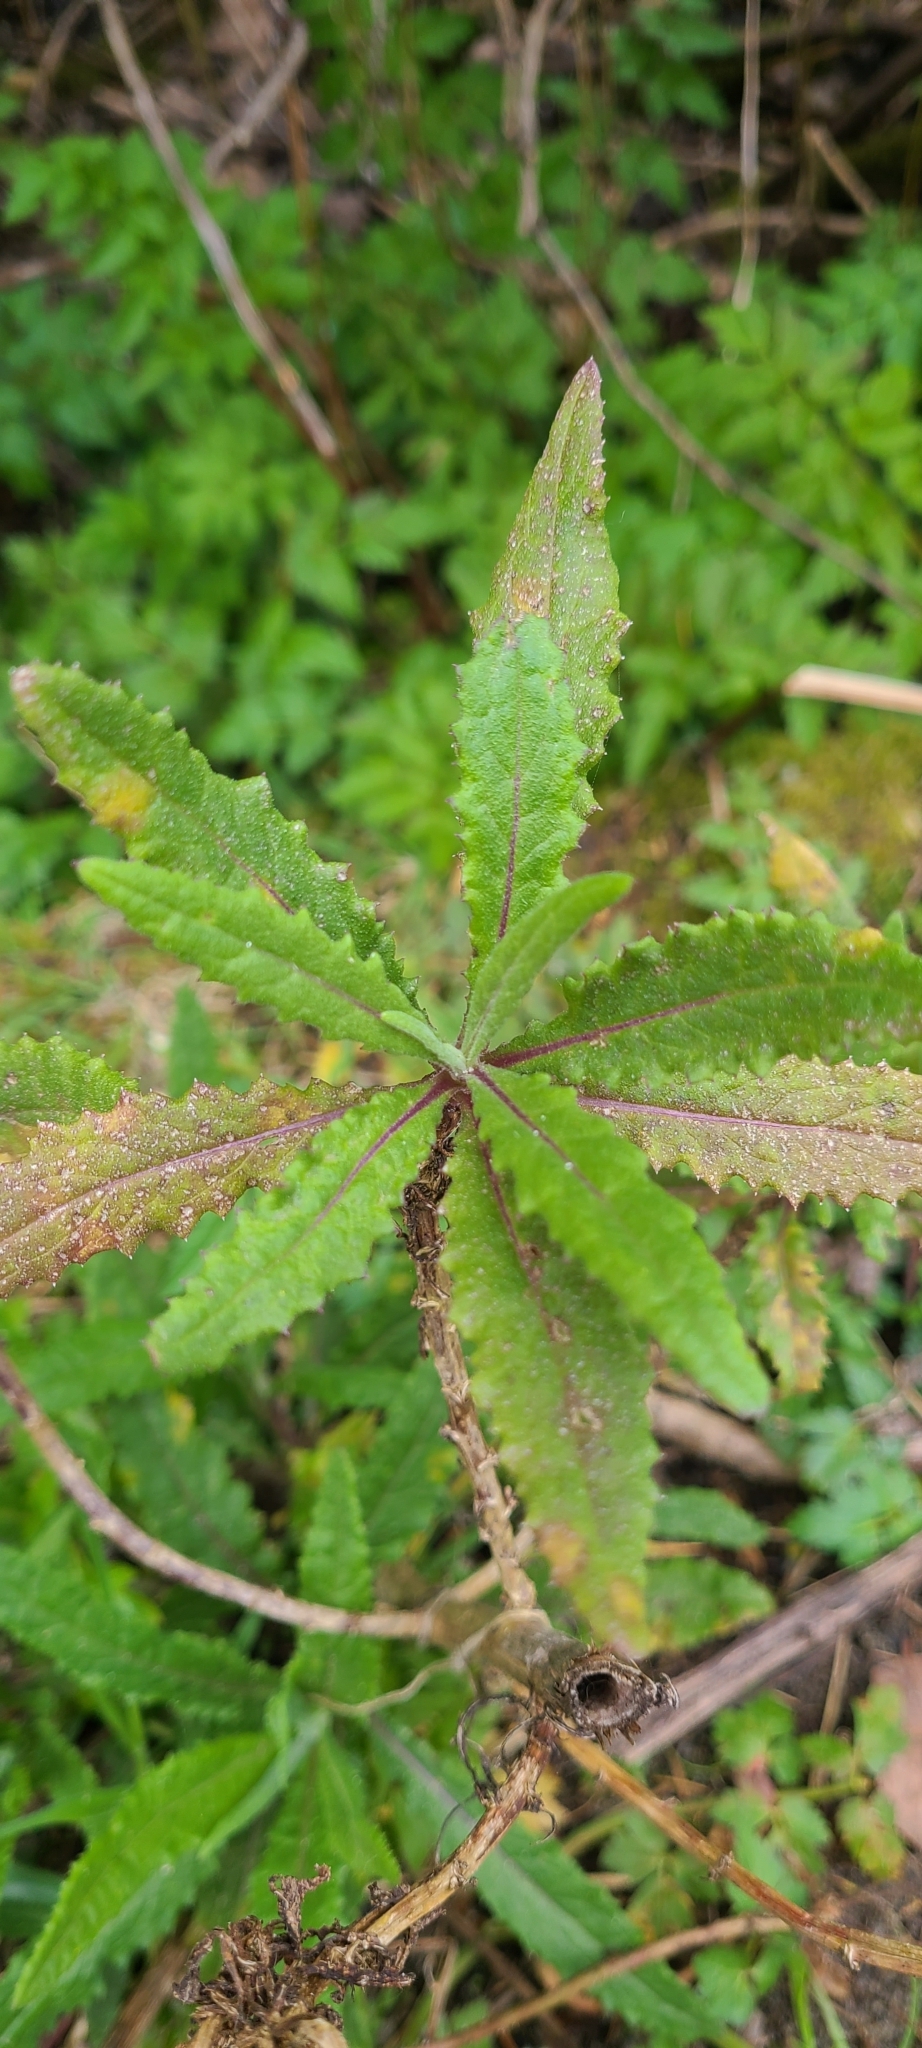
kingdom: Plantae
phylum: Tracheophyta
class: Magnoliopsida
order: Asterales
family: Asteraceae
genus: Senecio
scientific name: Senecio minimus
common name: Toothed fireweed
